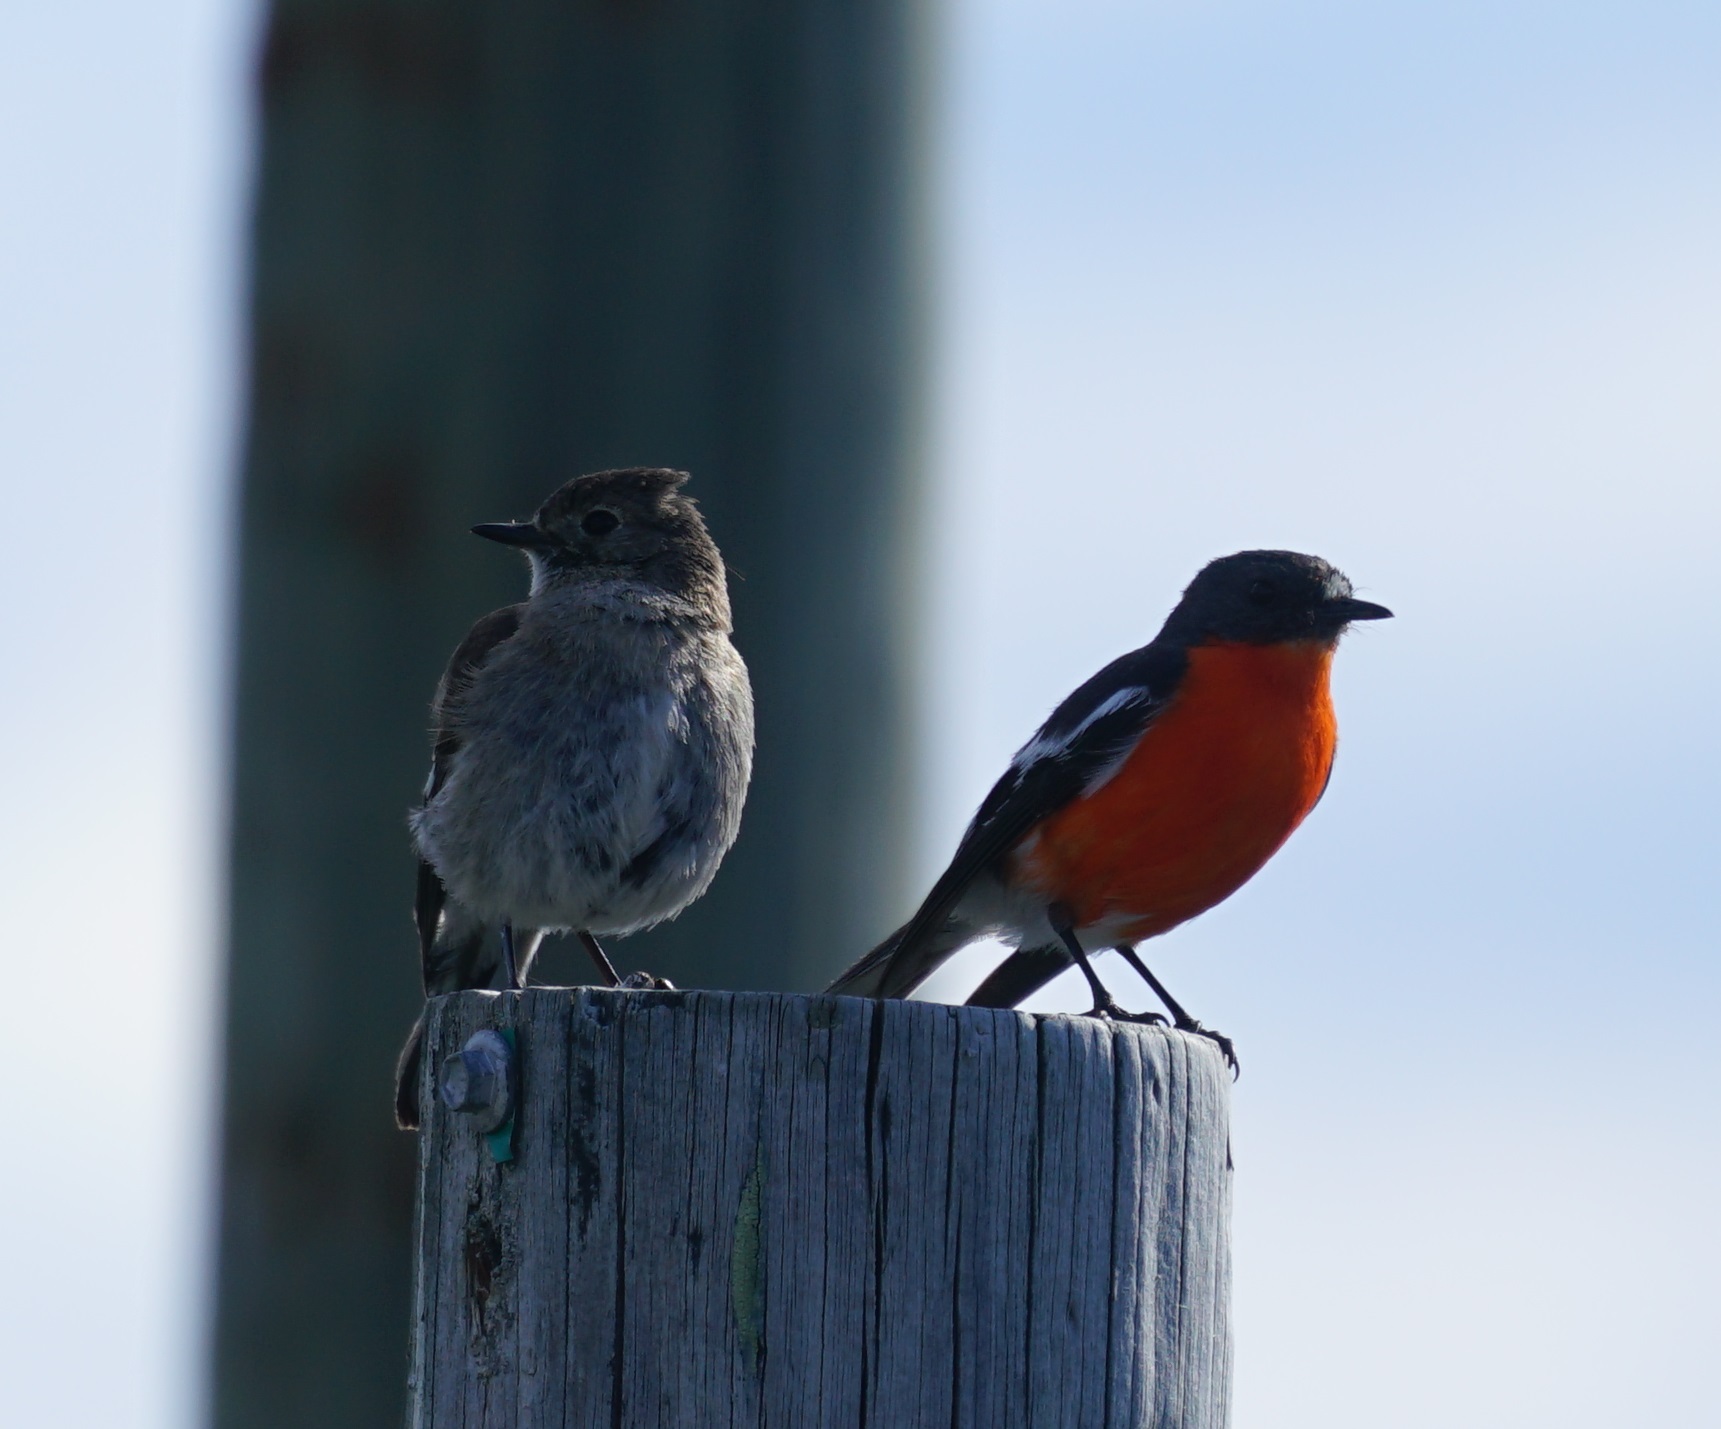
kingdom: Animalia
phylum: Chordata
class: Aves
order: Passeriformes
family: Petroicidae
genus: Petroica
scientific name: Petroica phoenicea
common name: Flame robin
